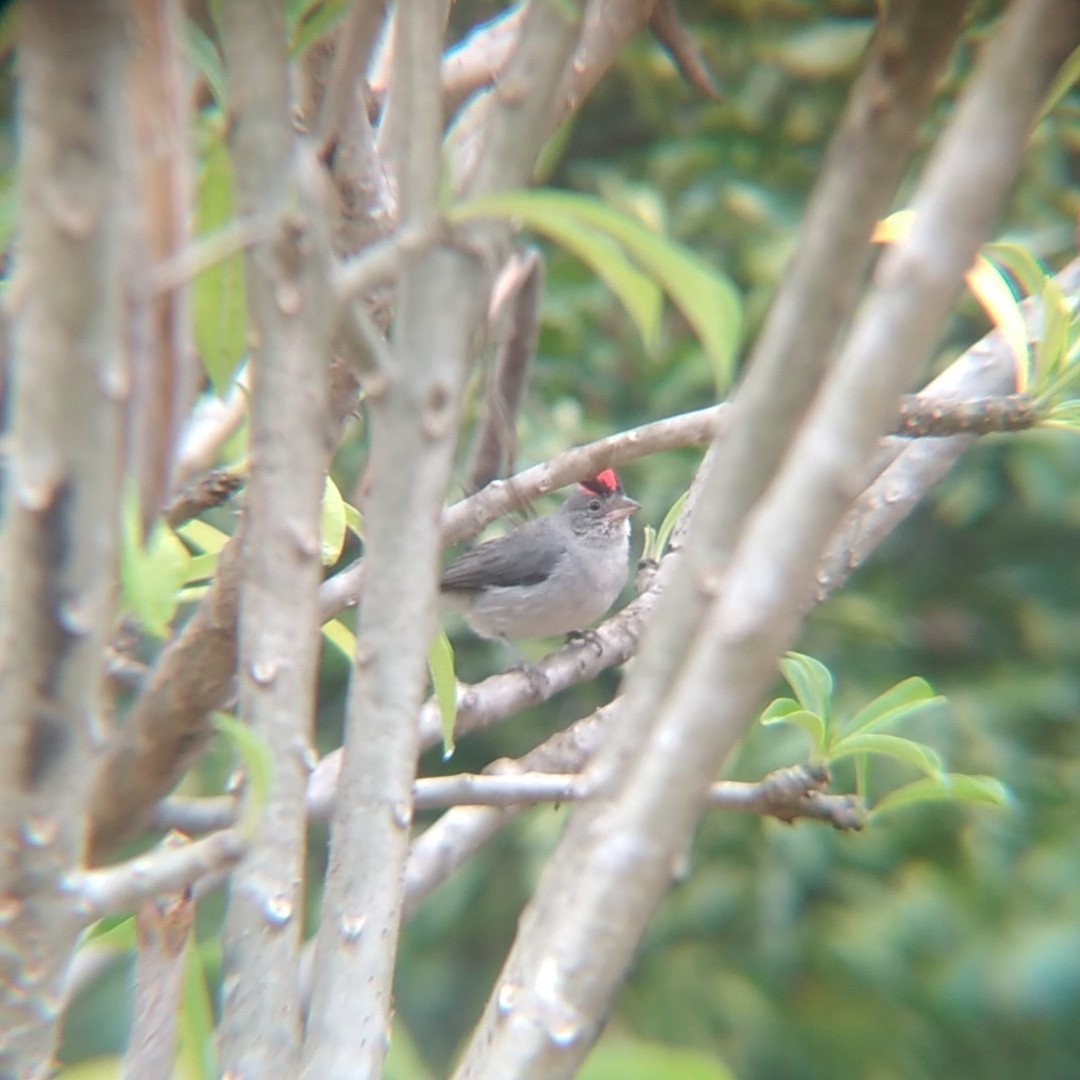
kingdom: Animalia
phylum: Chordata
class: Aves
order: Passeriformes
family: Thraupidae
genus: Coryphospingus
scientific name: Coryphospingus pileatus
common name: Grey pileated finch
